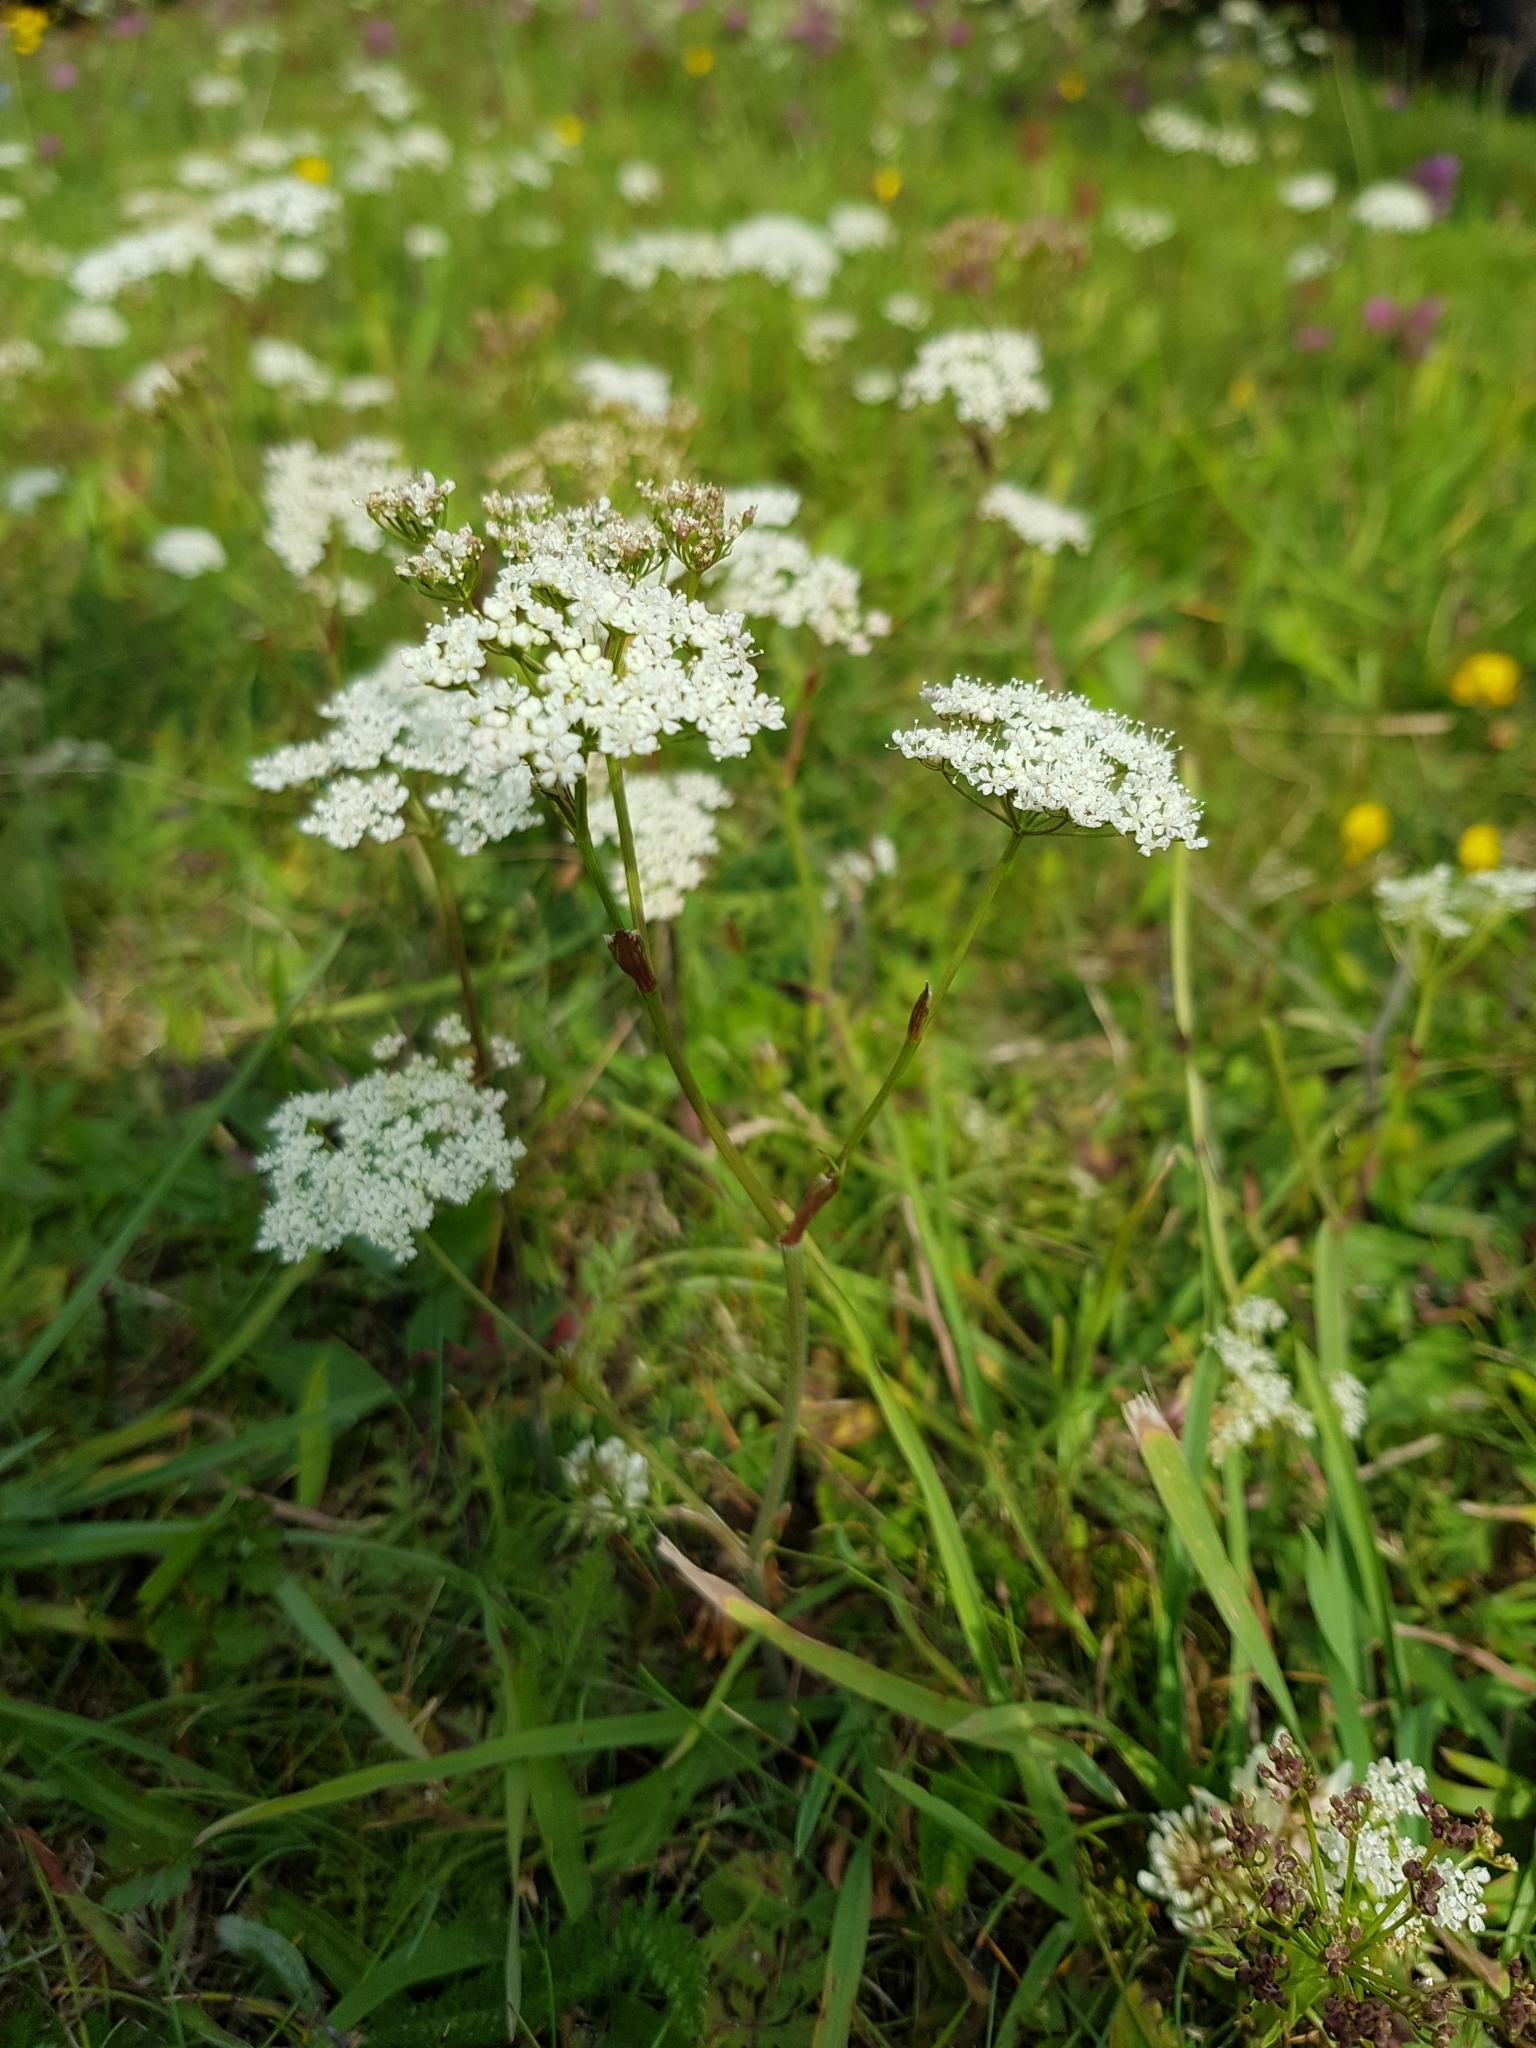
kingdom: Plantae
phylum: Tracheophyta
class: Magnoliopsida
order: Apiales
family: Apiaceae
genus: Pimpinella
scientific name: Pimpinella saxifraga
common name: Burnet-saxifrage
